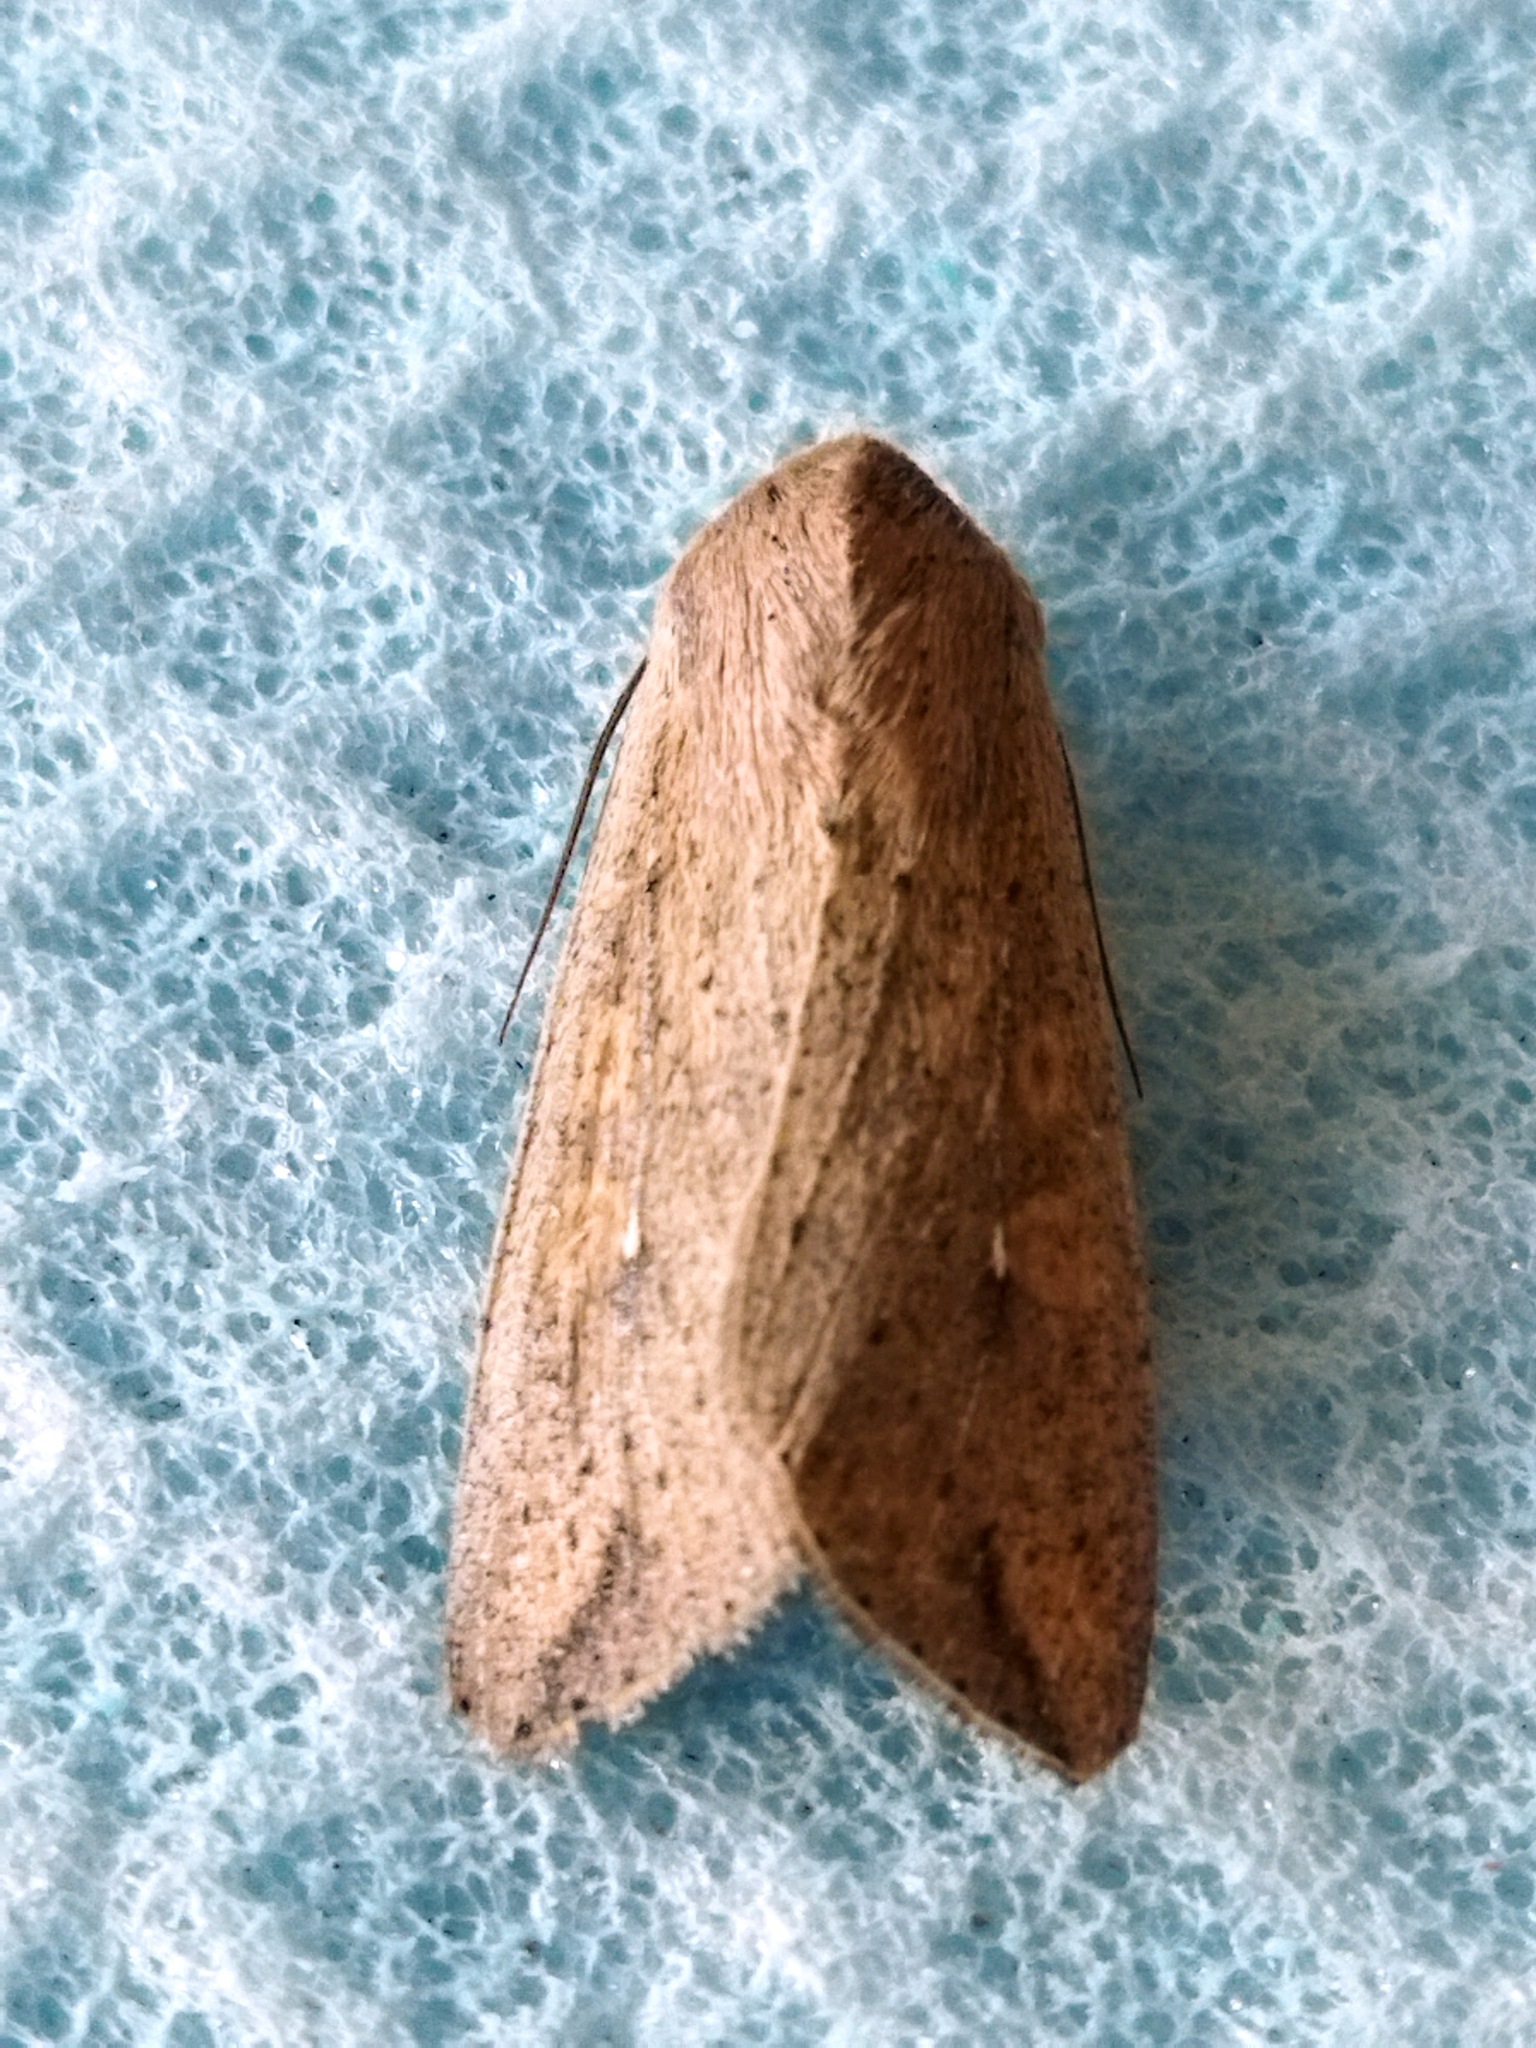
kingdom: Animalia
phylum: Arthropoda
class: Insecta
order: Lepidoptera
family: Noctuidae
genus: Mythimna
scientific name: Mythimna unipuncta
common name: White-speck
